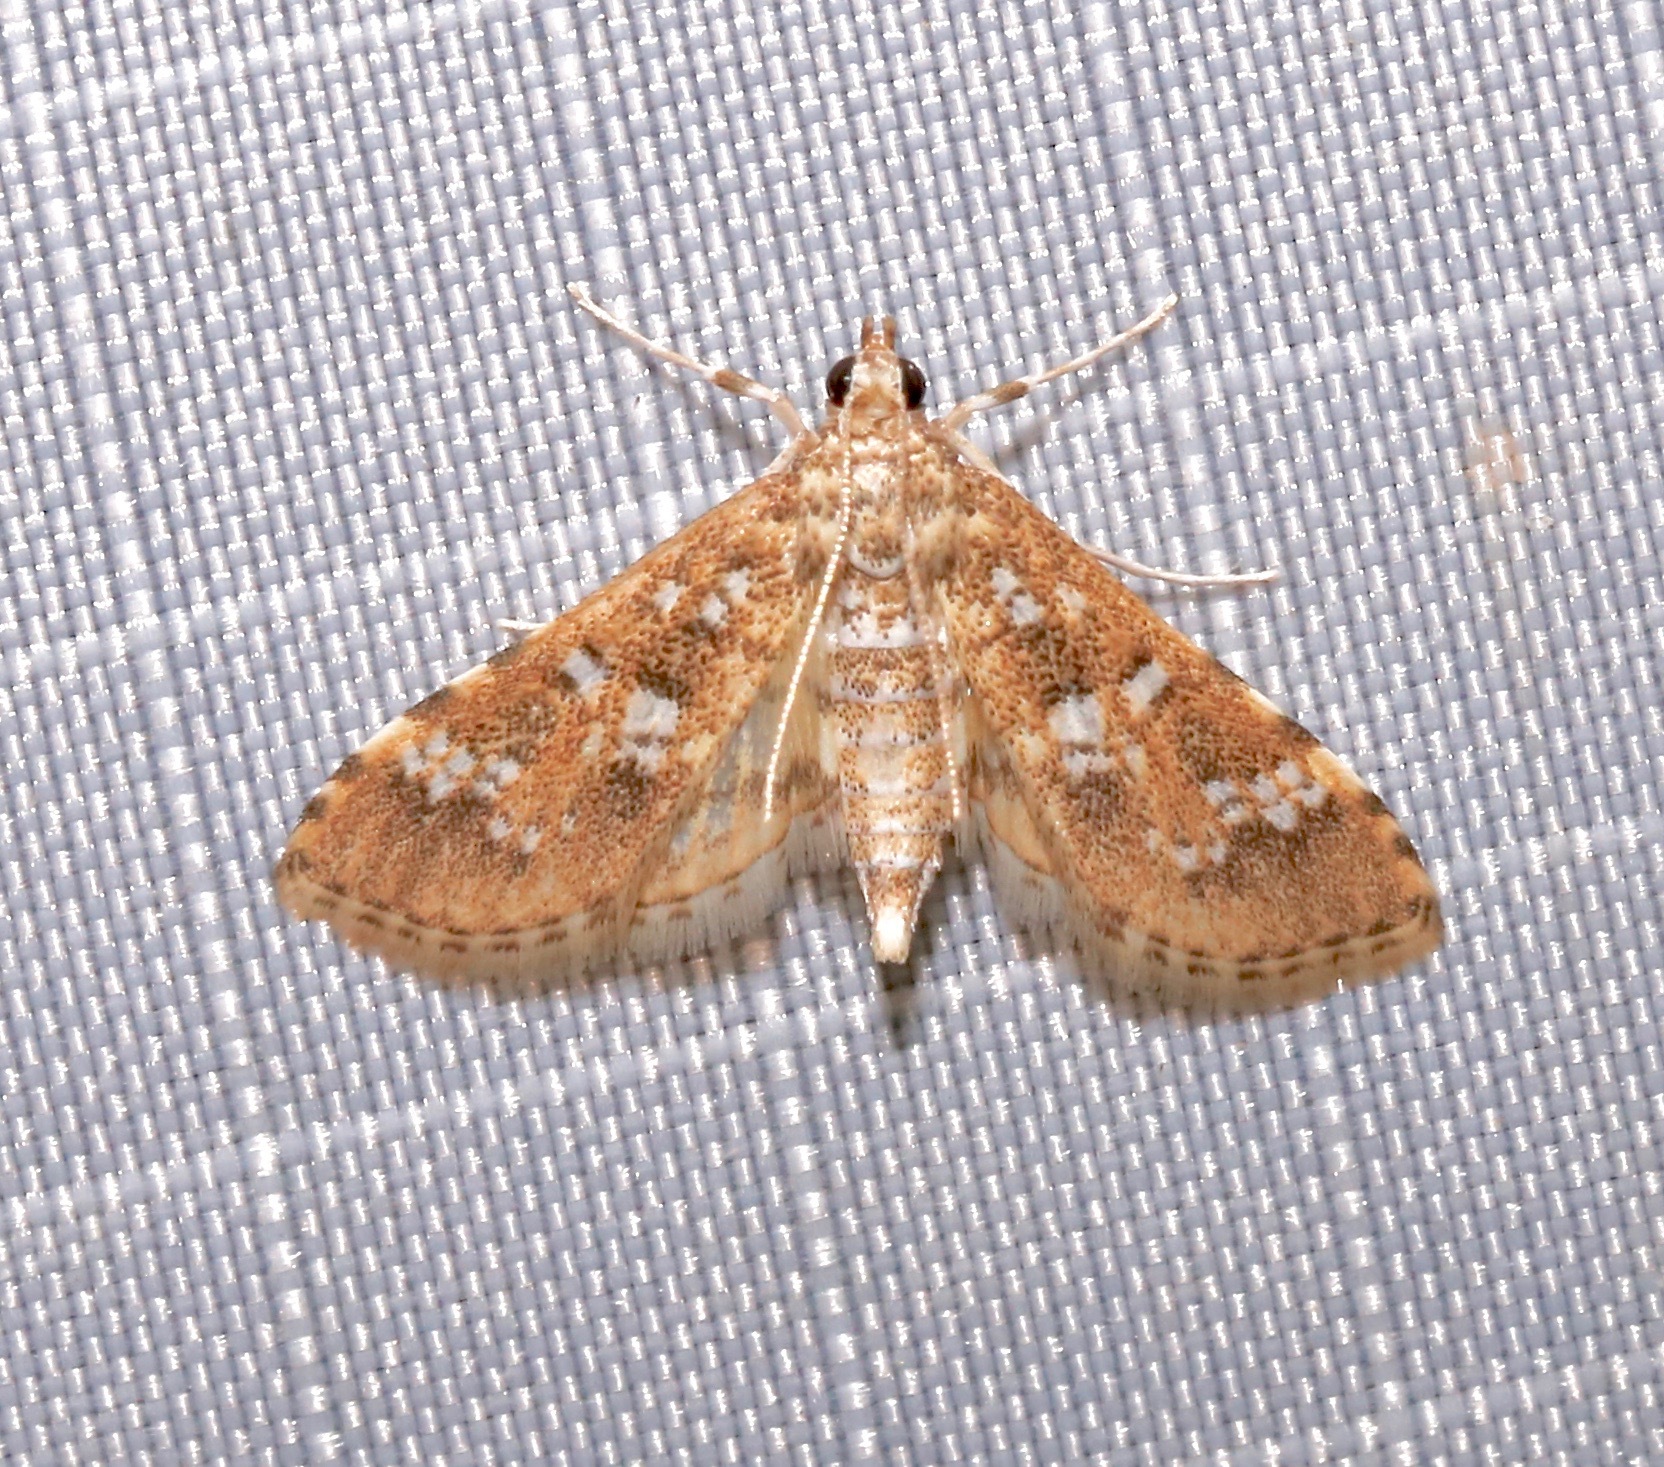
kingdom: Animalia
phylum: Arthropoda
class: Insecta
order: Lepidoptera
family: Crambidae
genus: Samea
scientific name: Samea multiplicalis
